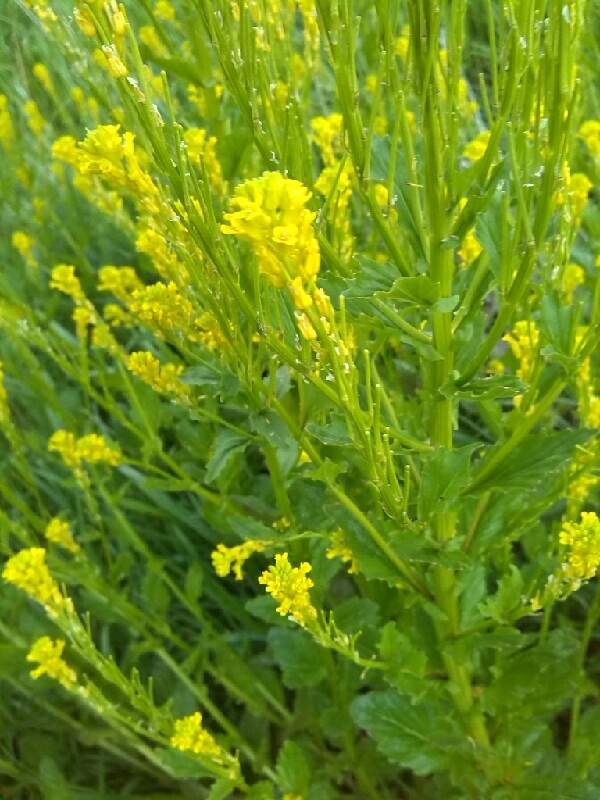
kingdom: Plantae
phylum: Tracheophyta
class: Magnoliopsida
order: Brassicales
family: Brassicaceae
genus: Barbarea
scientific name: Barbarea stricta
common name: Small-flowered winter-cress
